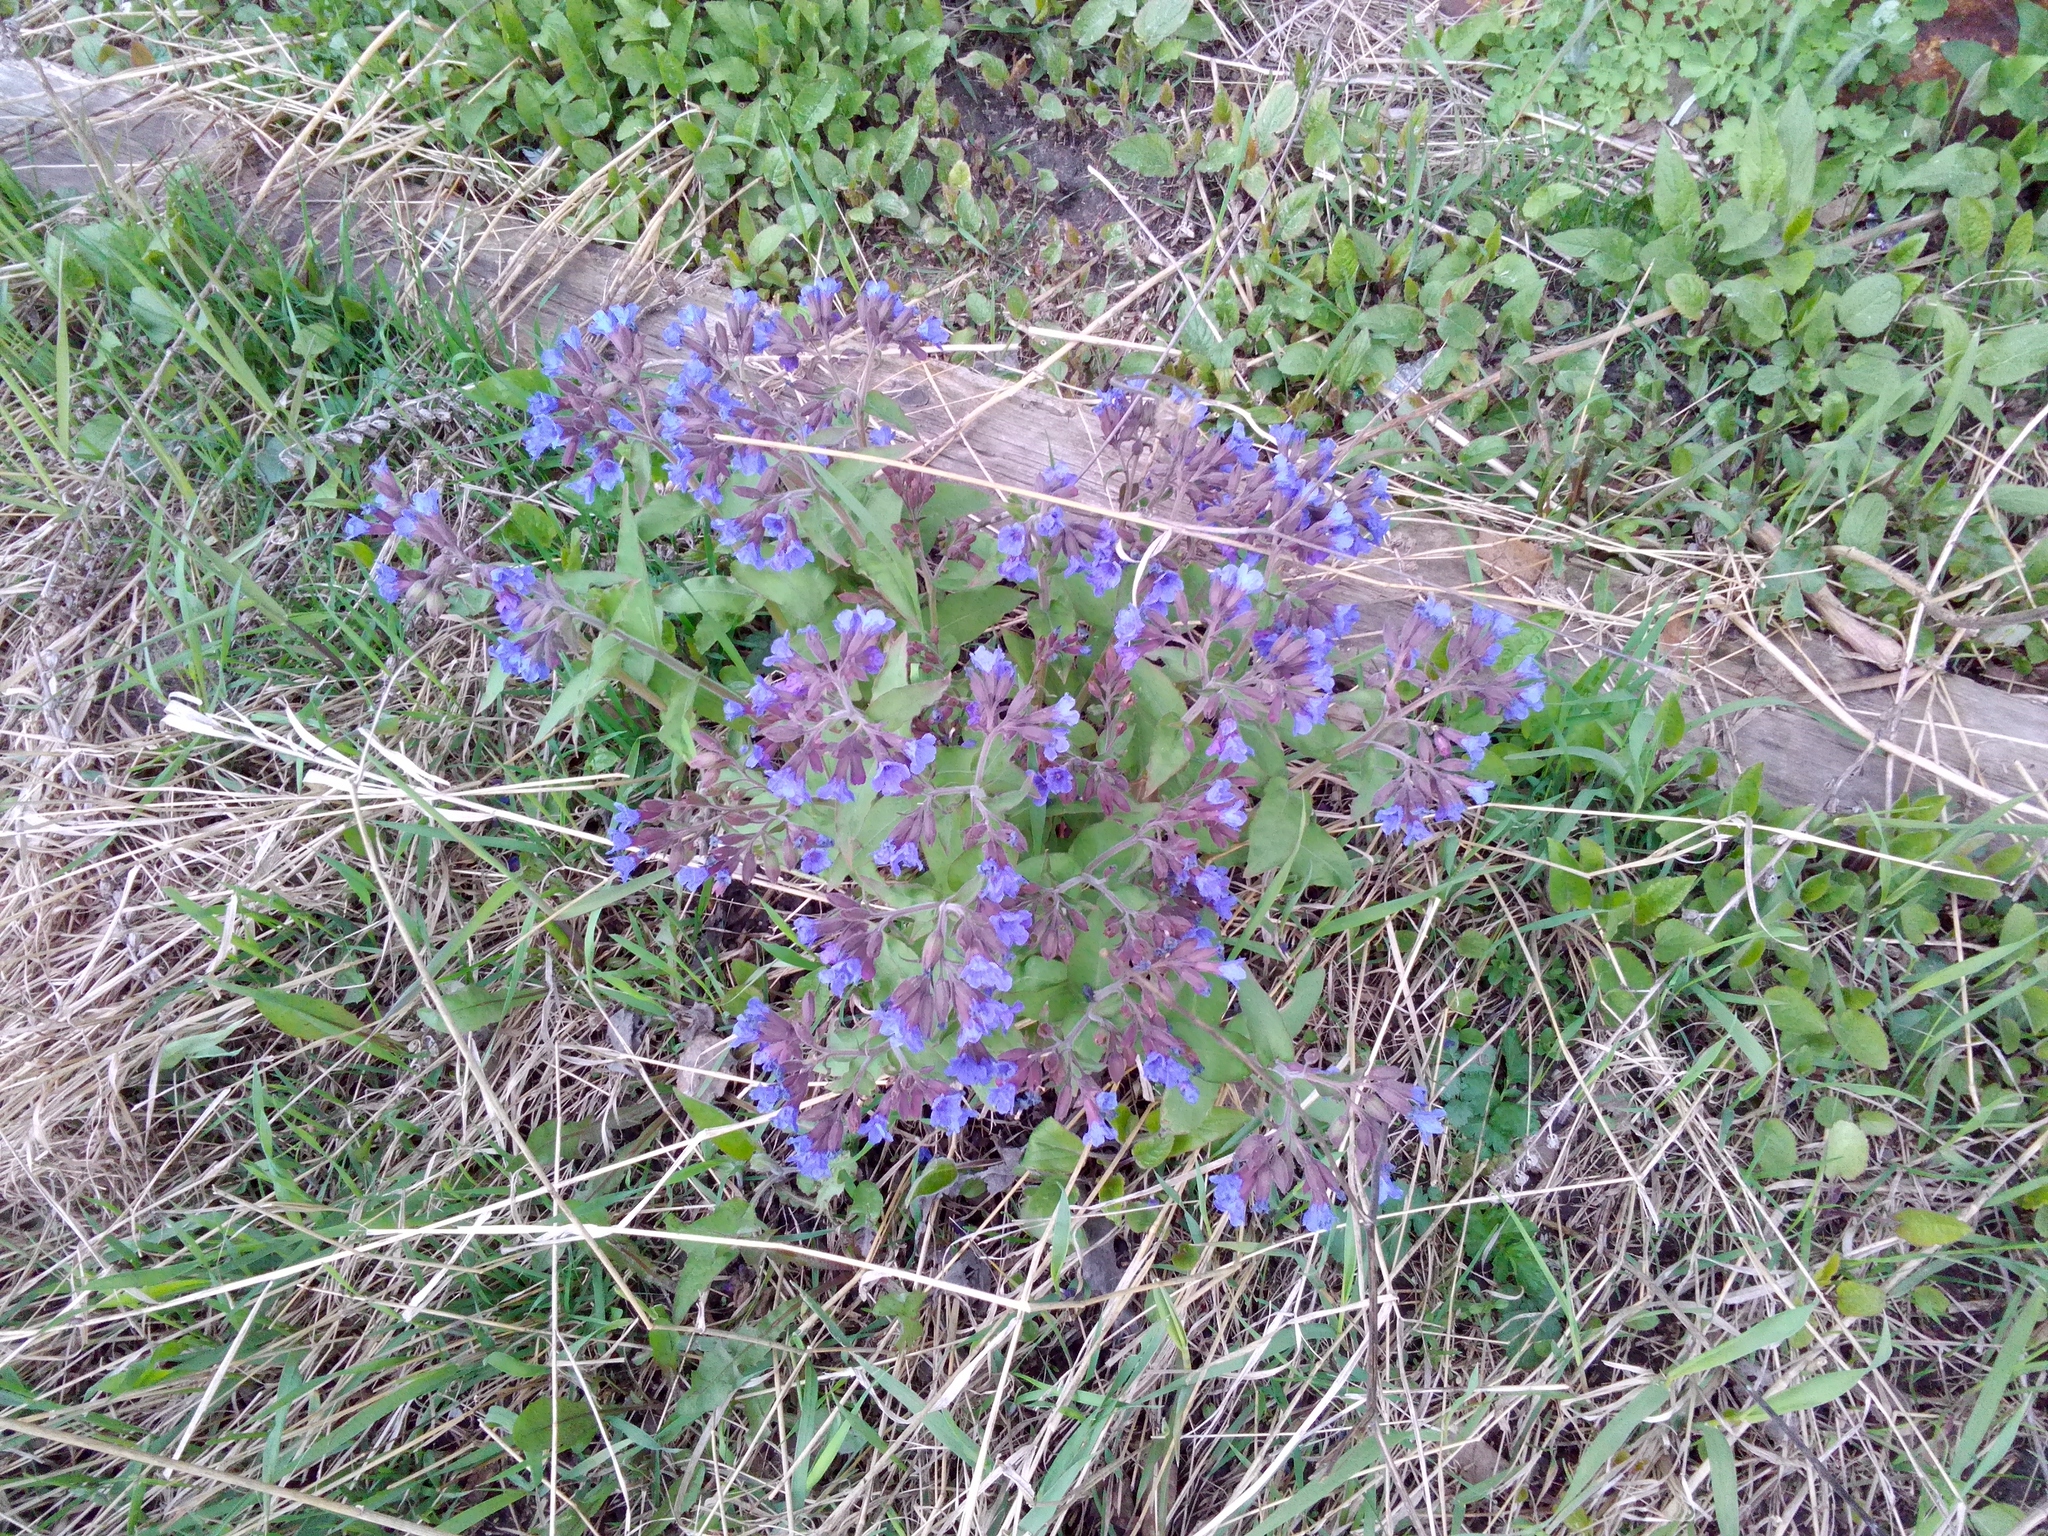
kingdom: Plantae
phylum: Tracheophyta
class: Magnoliopsida
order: Boraginales
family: Boraginaceae
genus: Pulmonaria
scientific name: Pulmonaria mollis
